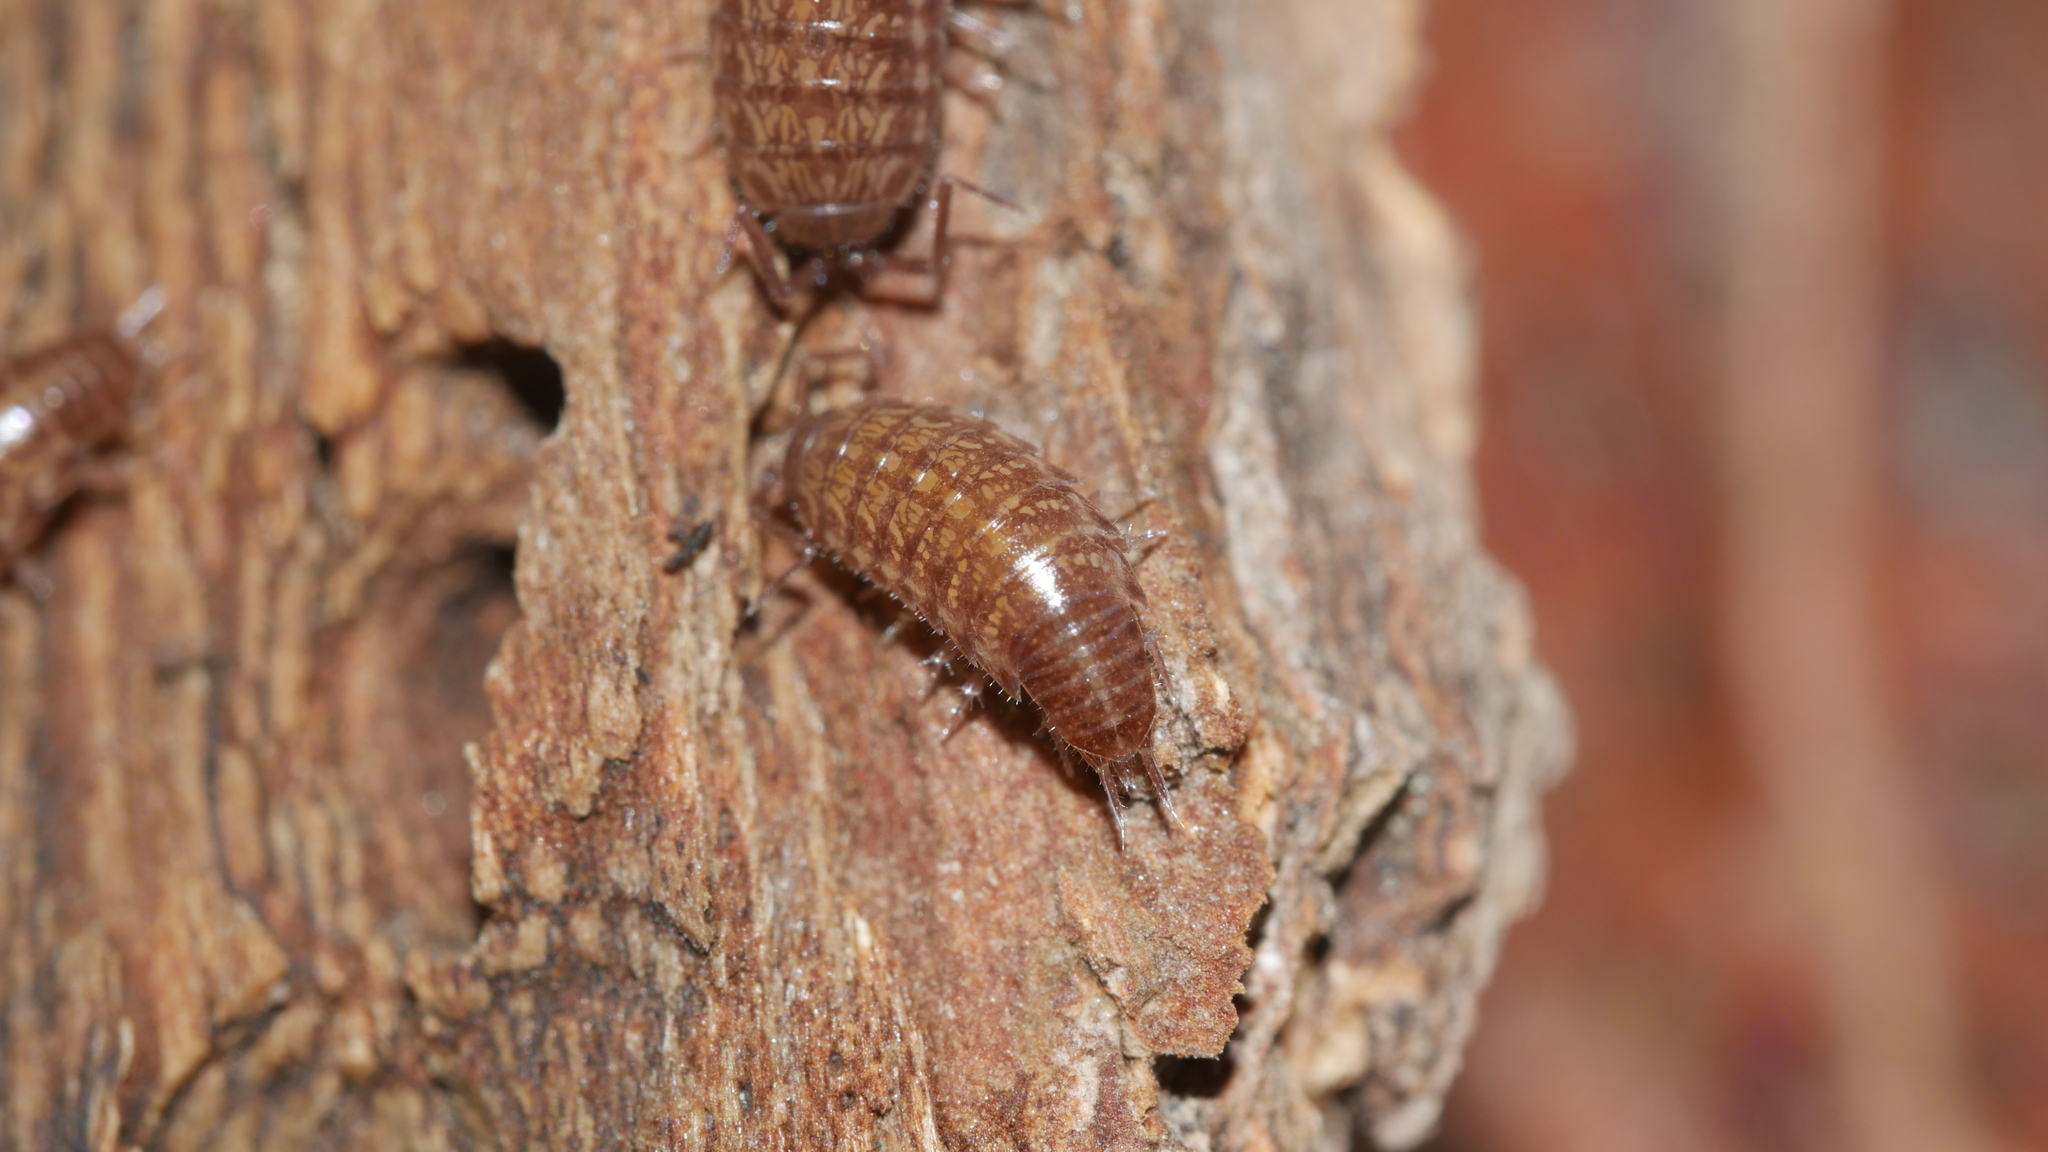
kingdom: Animalia
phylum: Arthropoda
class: Malacostraca
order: Isopoda
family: Philosciidae
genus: Chaetophiloscia
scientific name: Chaetophiloscia sicula
